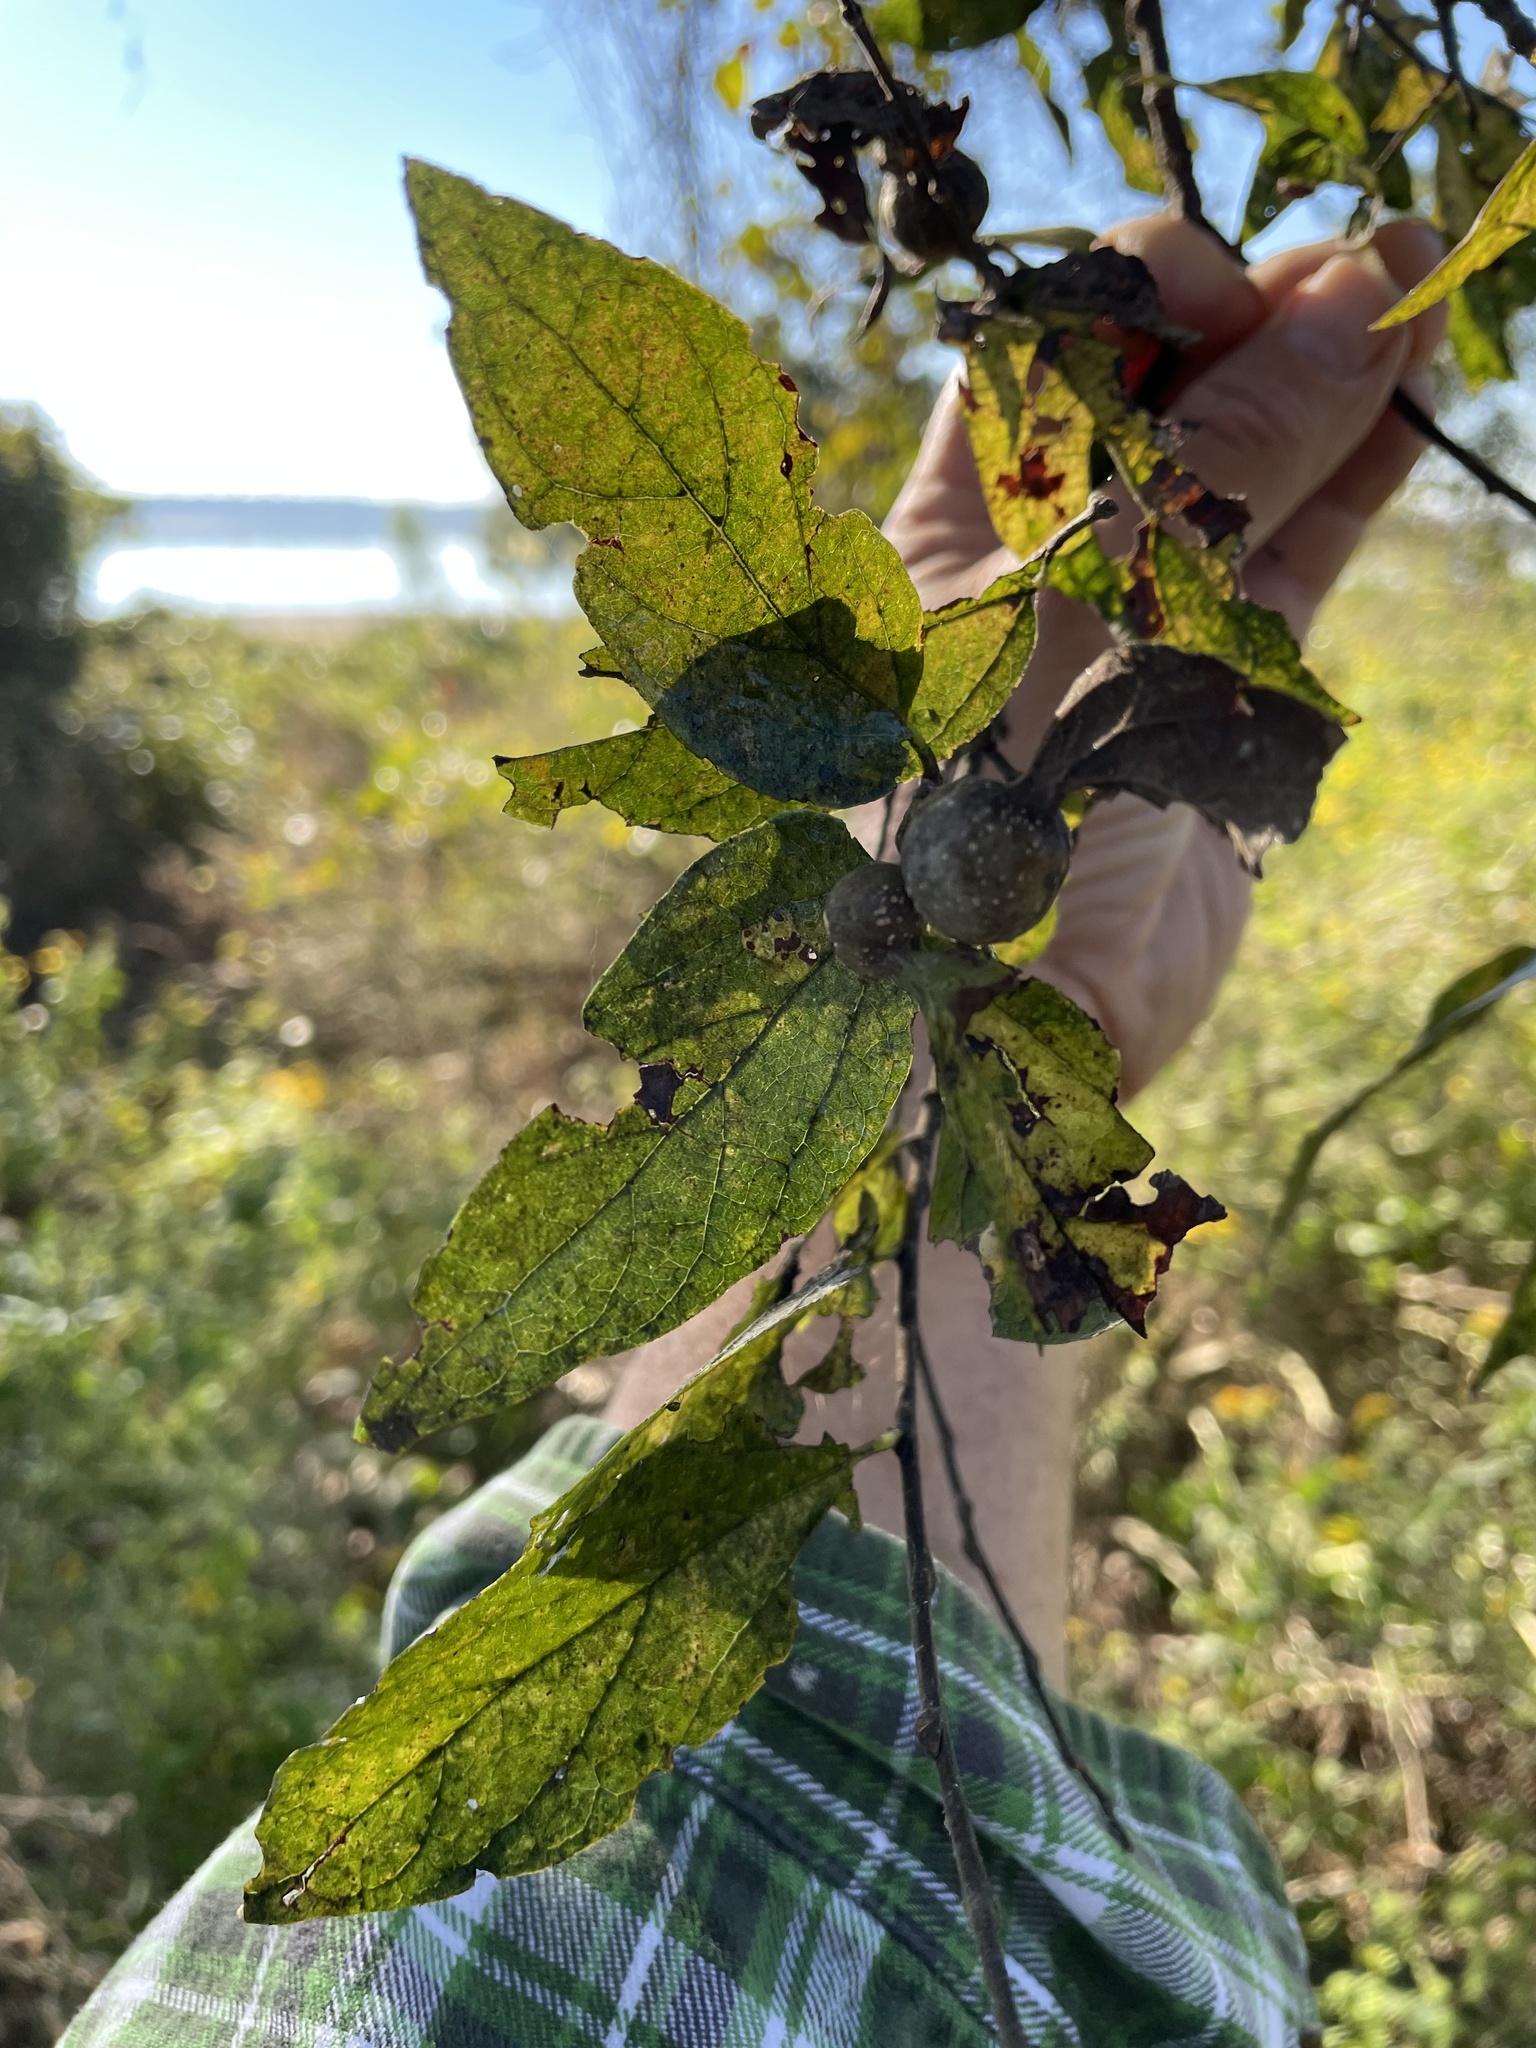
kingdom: Animalia
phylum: Arthropoda
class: Insecta
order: Hemiptera
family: Aphalaridae
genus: Pachypsylla
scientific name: Pachypsylla venusta
